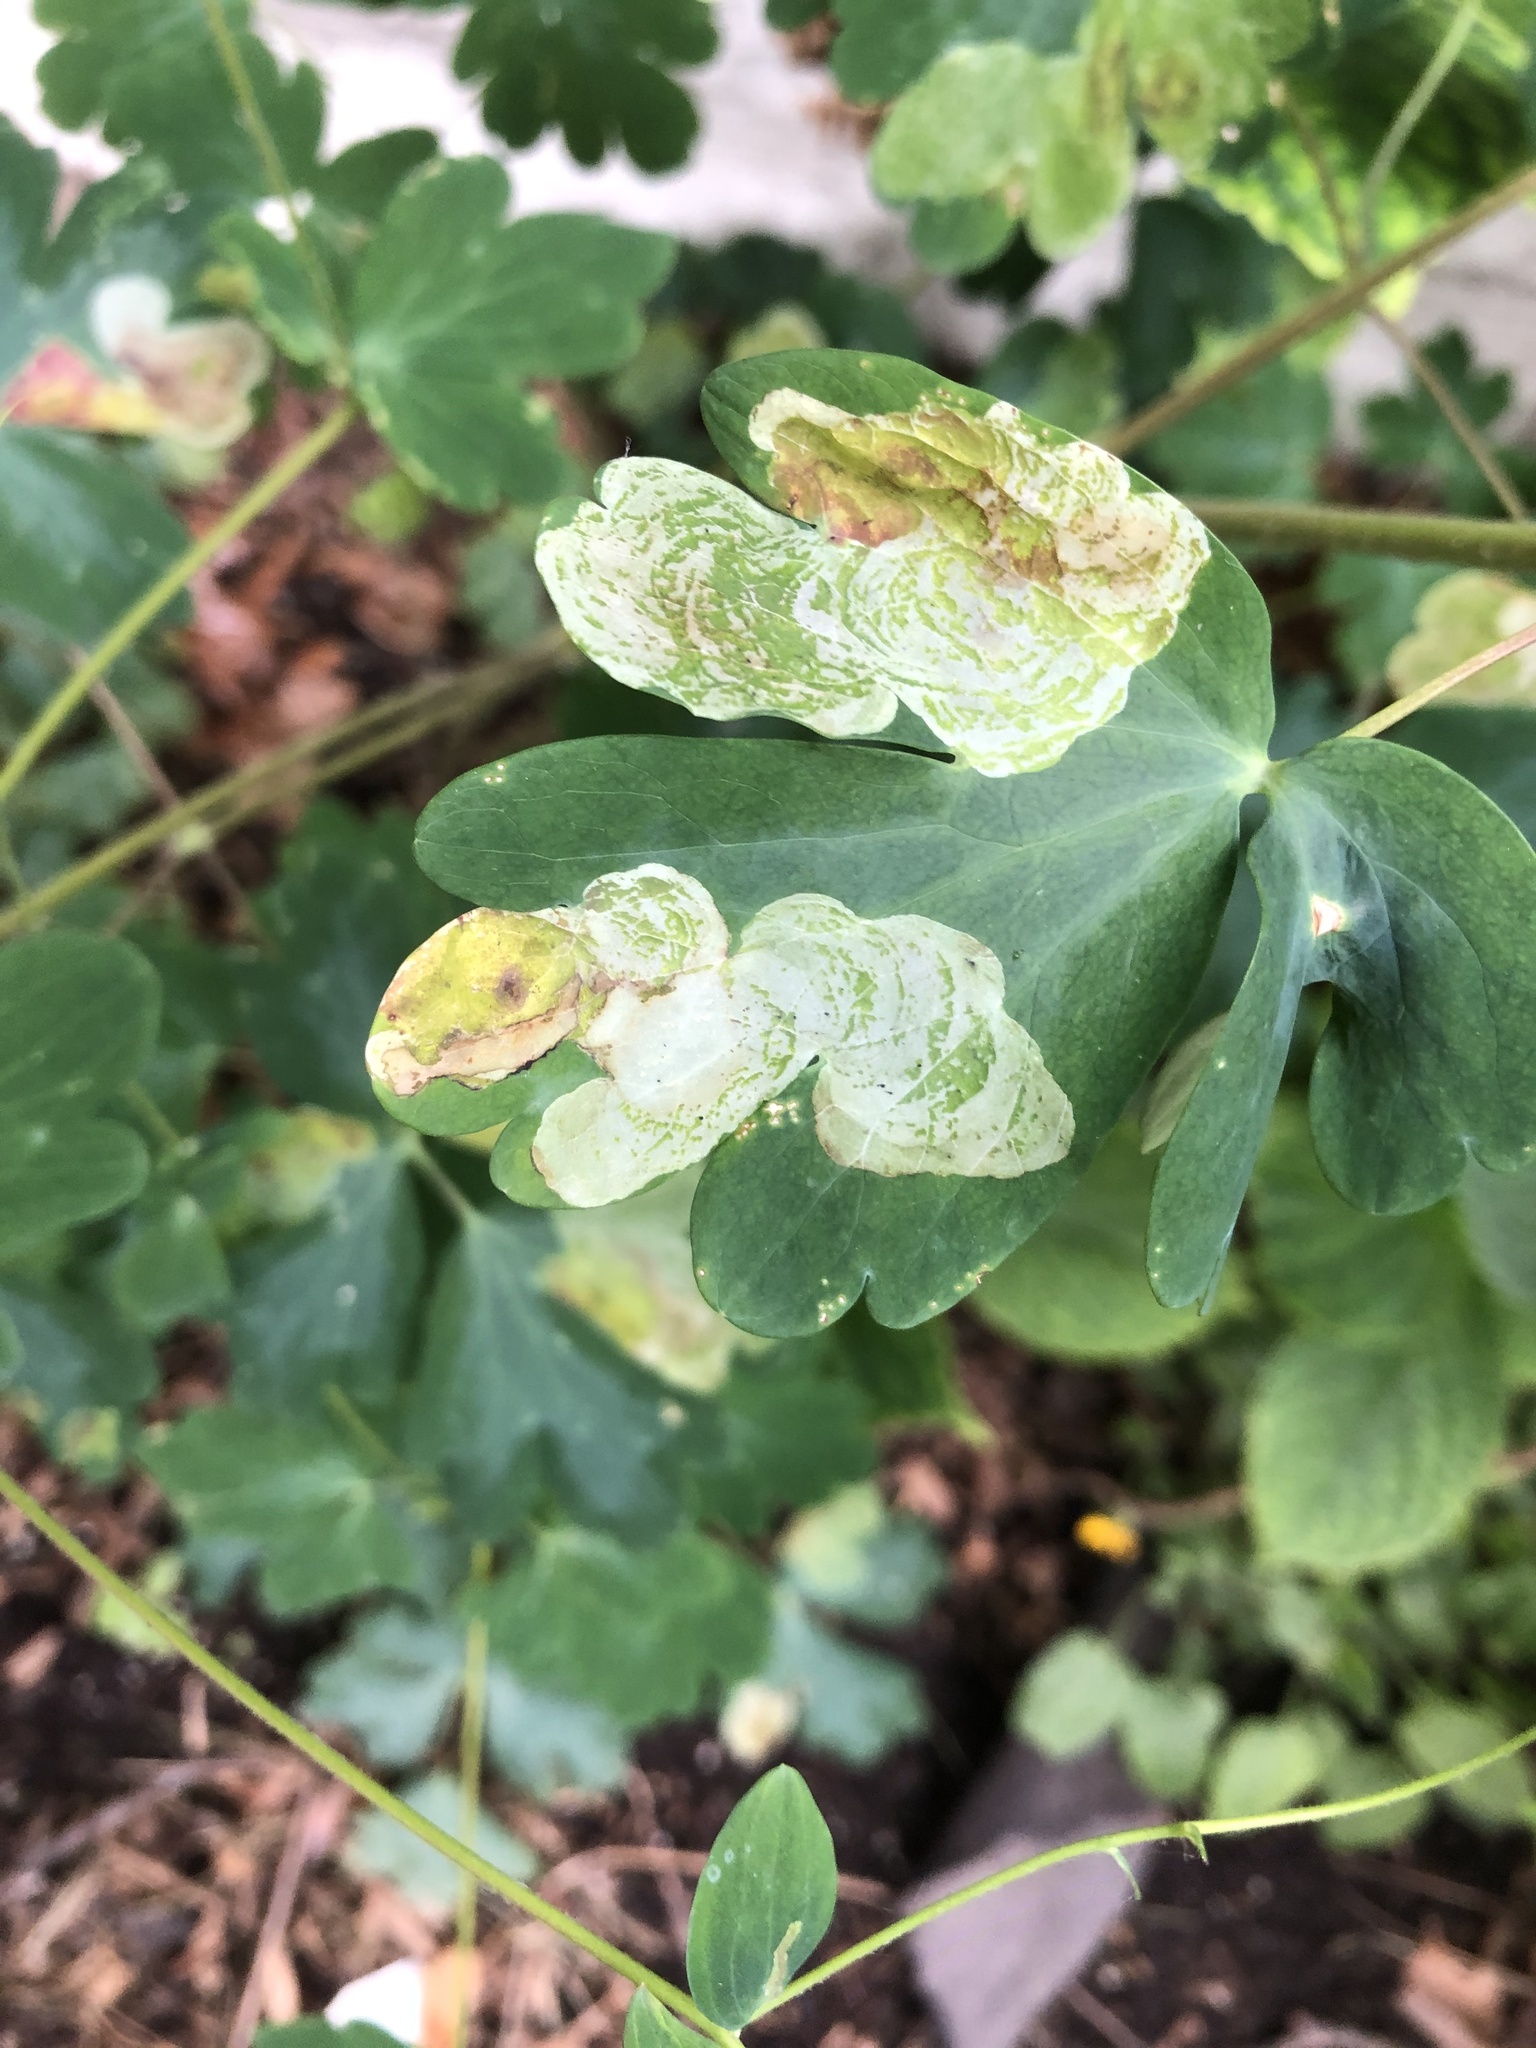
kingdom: Animalia
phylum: Arthropoda
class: Insecta
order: Diptera
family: Agromyzidae
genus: Phytomyza
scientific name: Phytomyza aquilegiana
